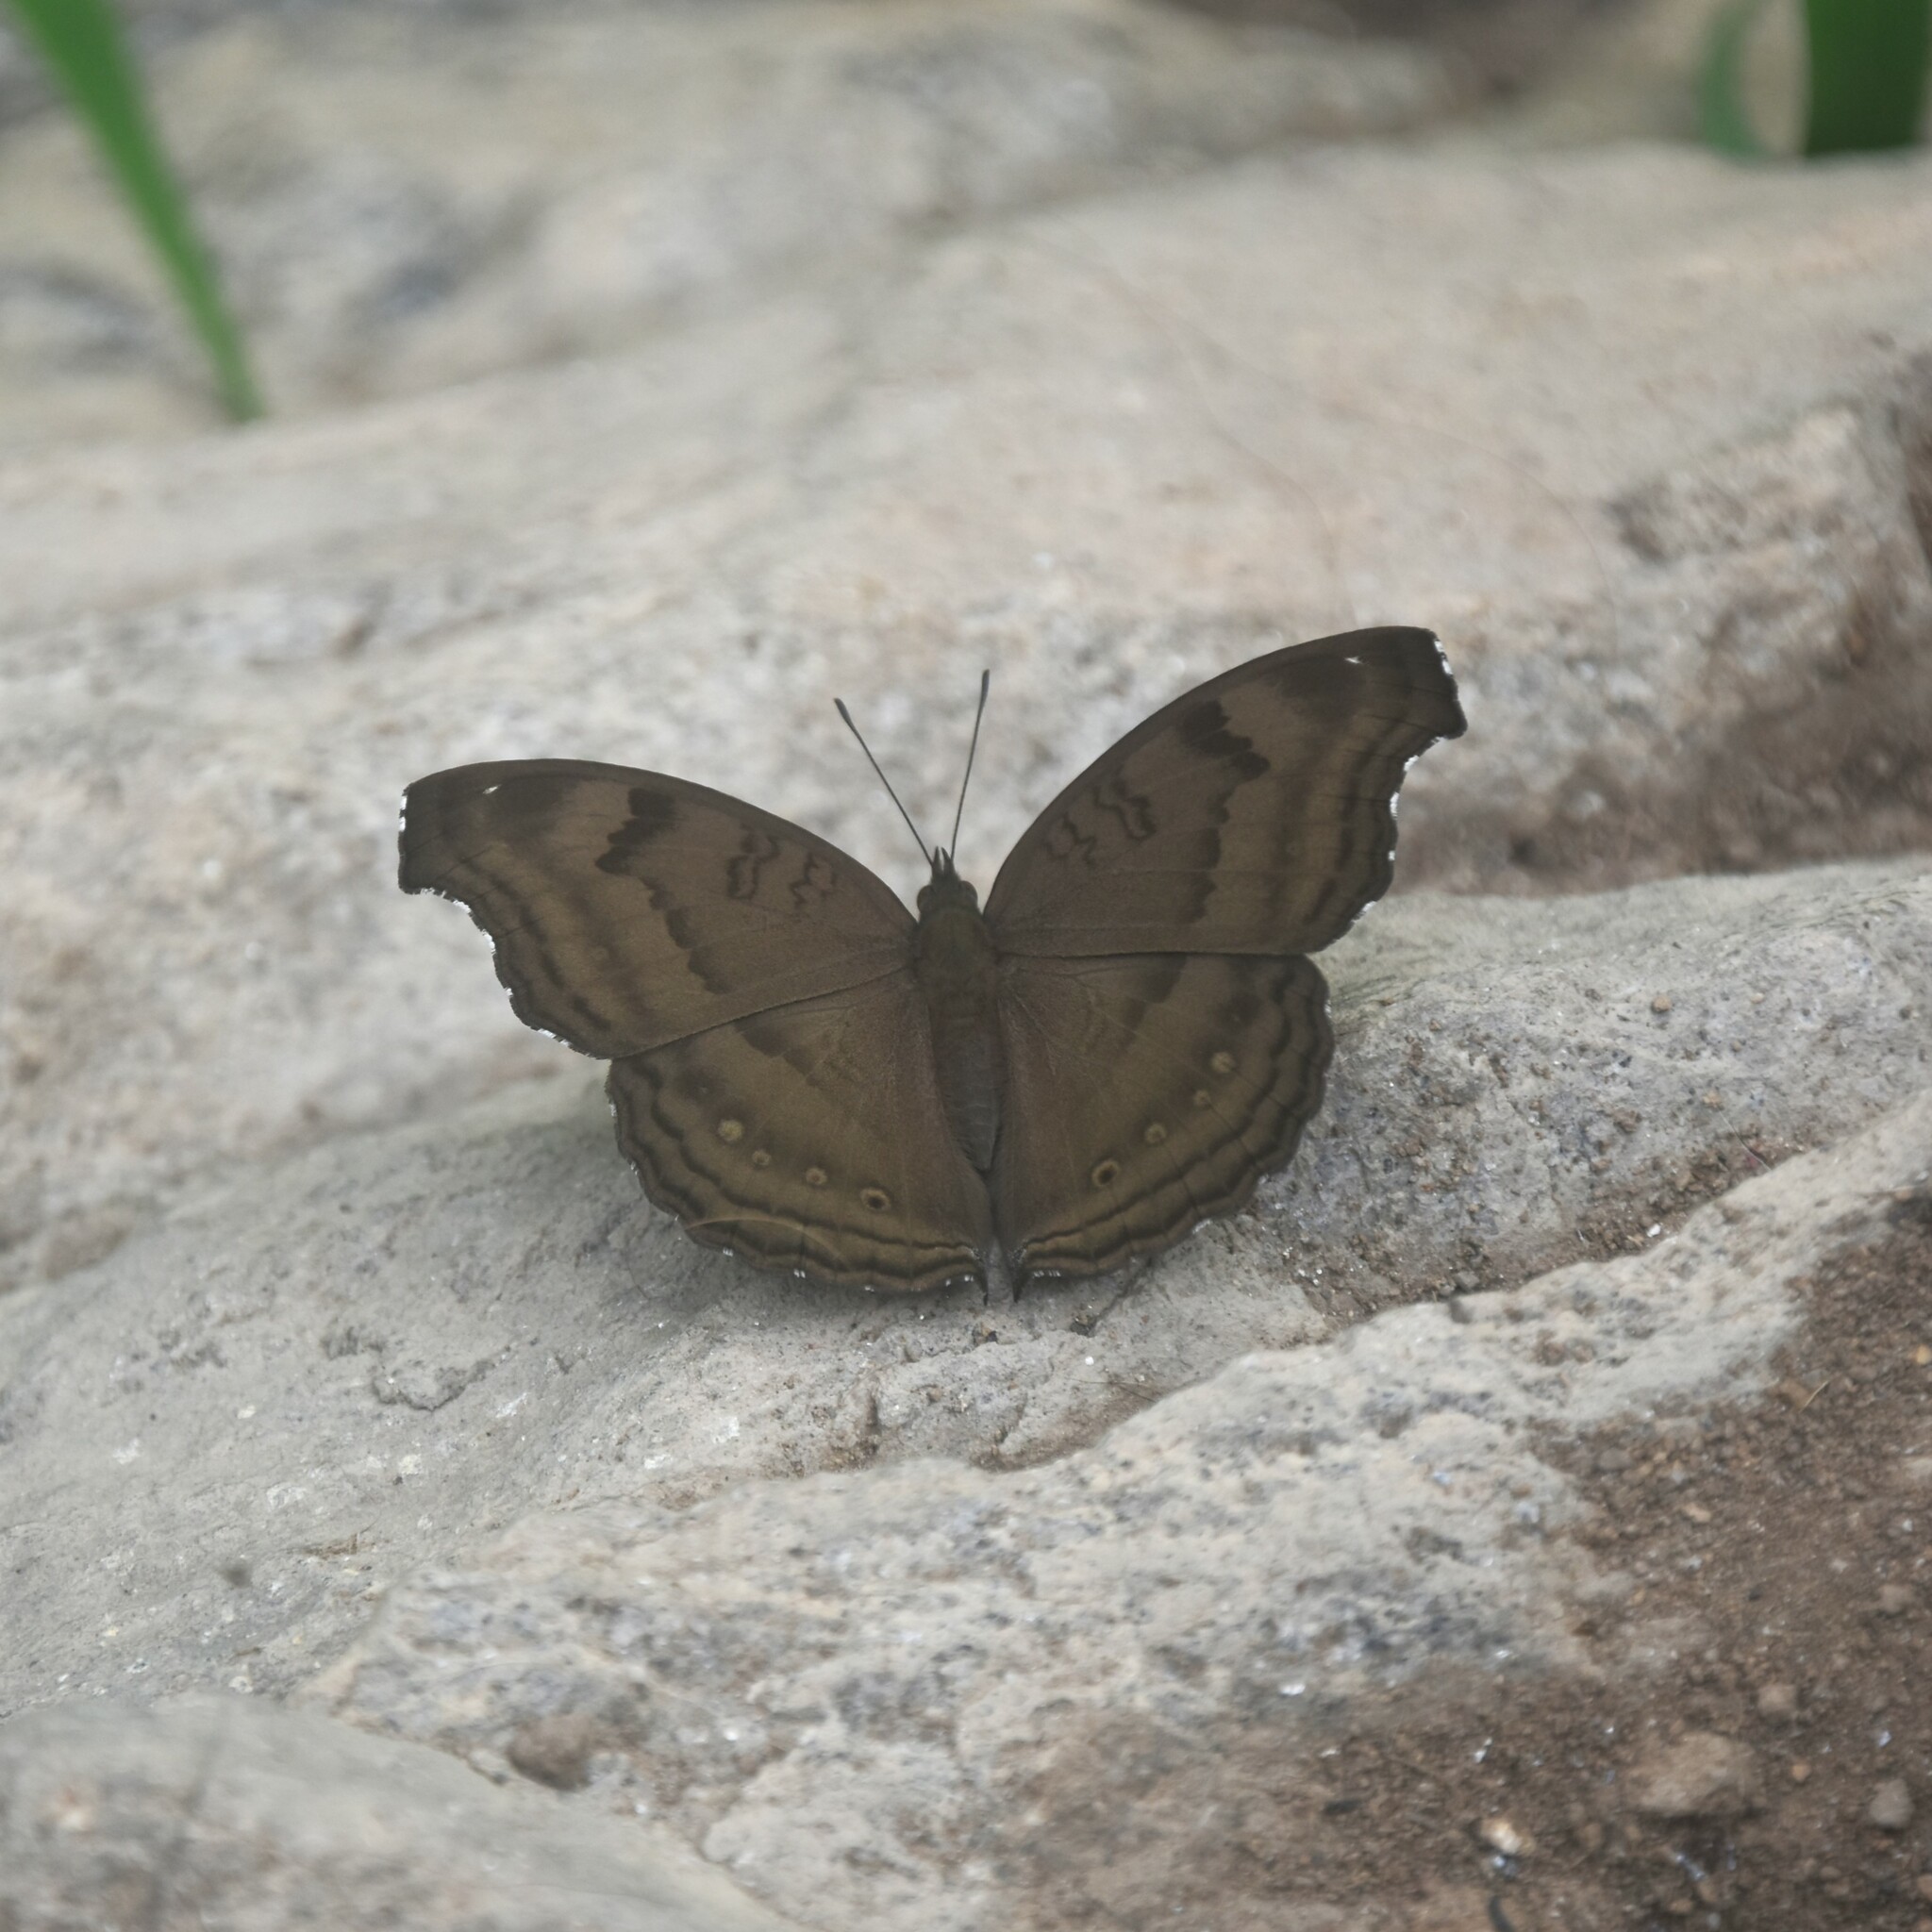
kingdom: Animalia
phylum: Arthropoda
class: Insecta
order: Lepidoptera
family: Nymphalidae
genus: Junonia
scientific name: Junonia iphita
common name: Chocolate pansy
